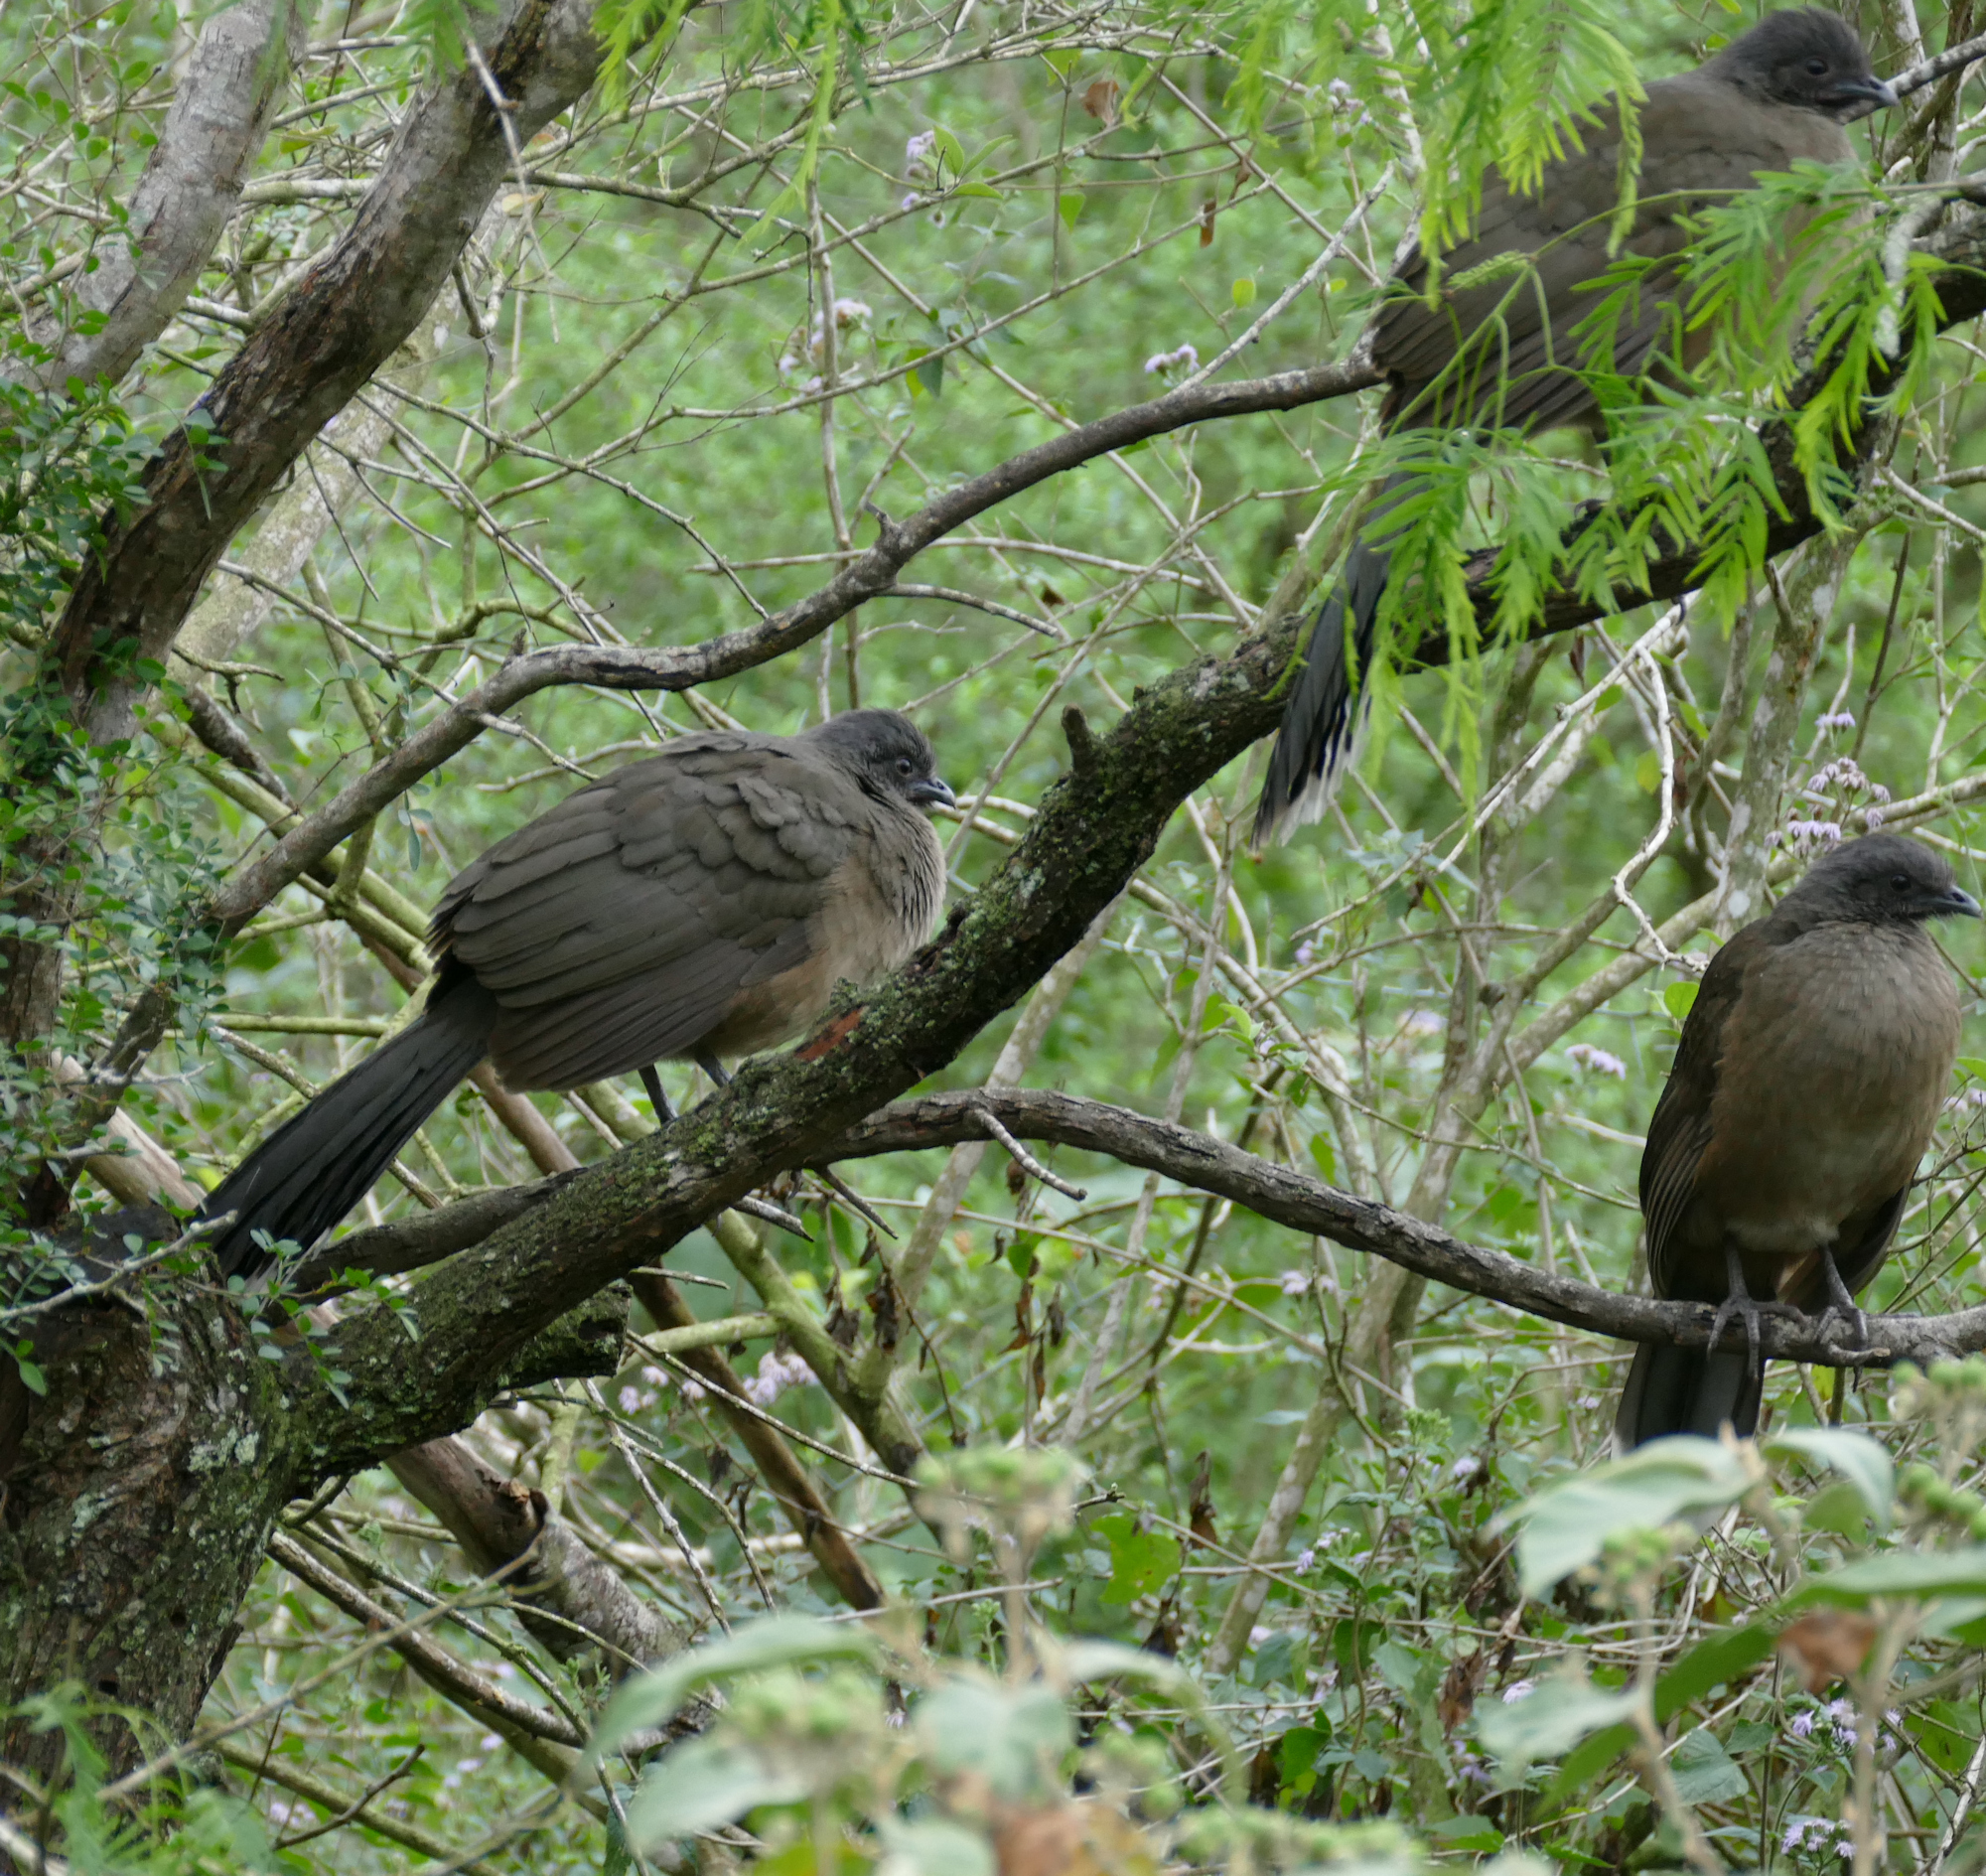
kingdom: Animalia
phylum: Chordata
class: Aves
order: Galliformes
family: Cracidae
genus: Ortalis
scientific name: Ortalis vetula
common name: Plain chachalaca
